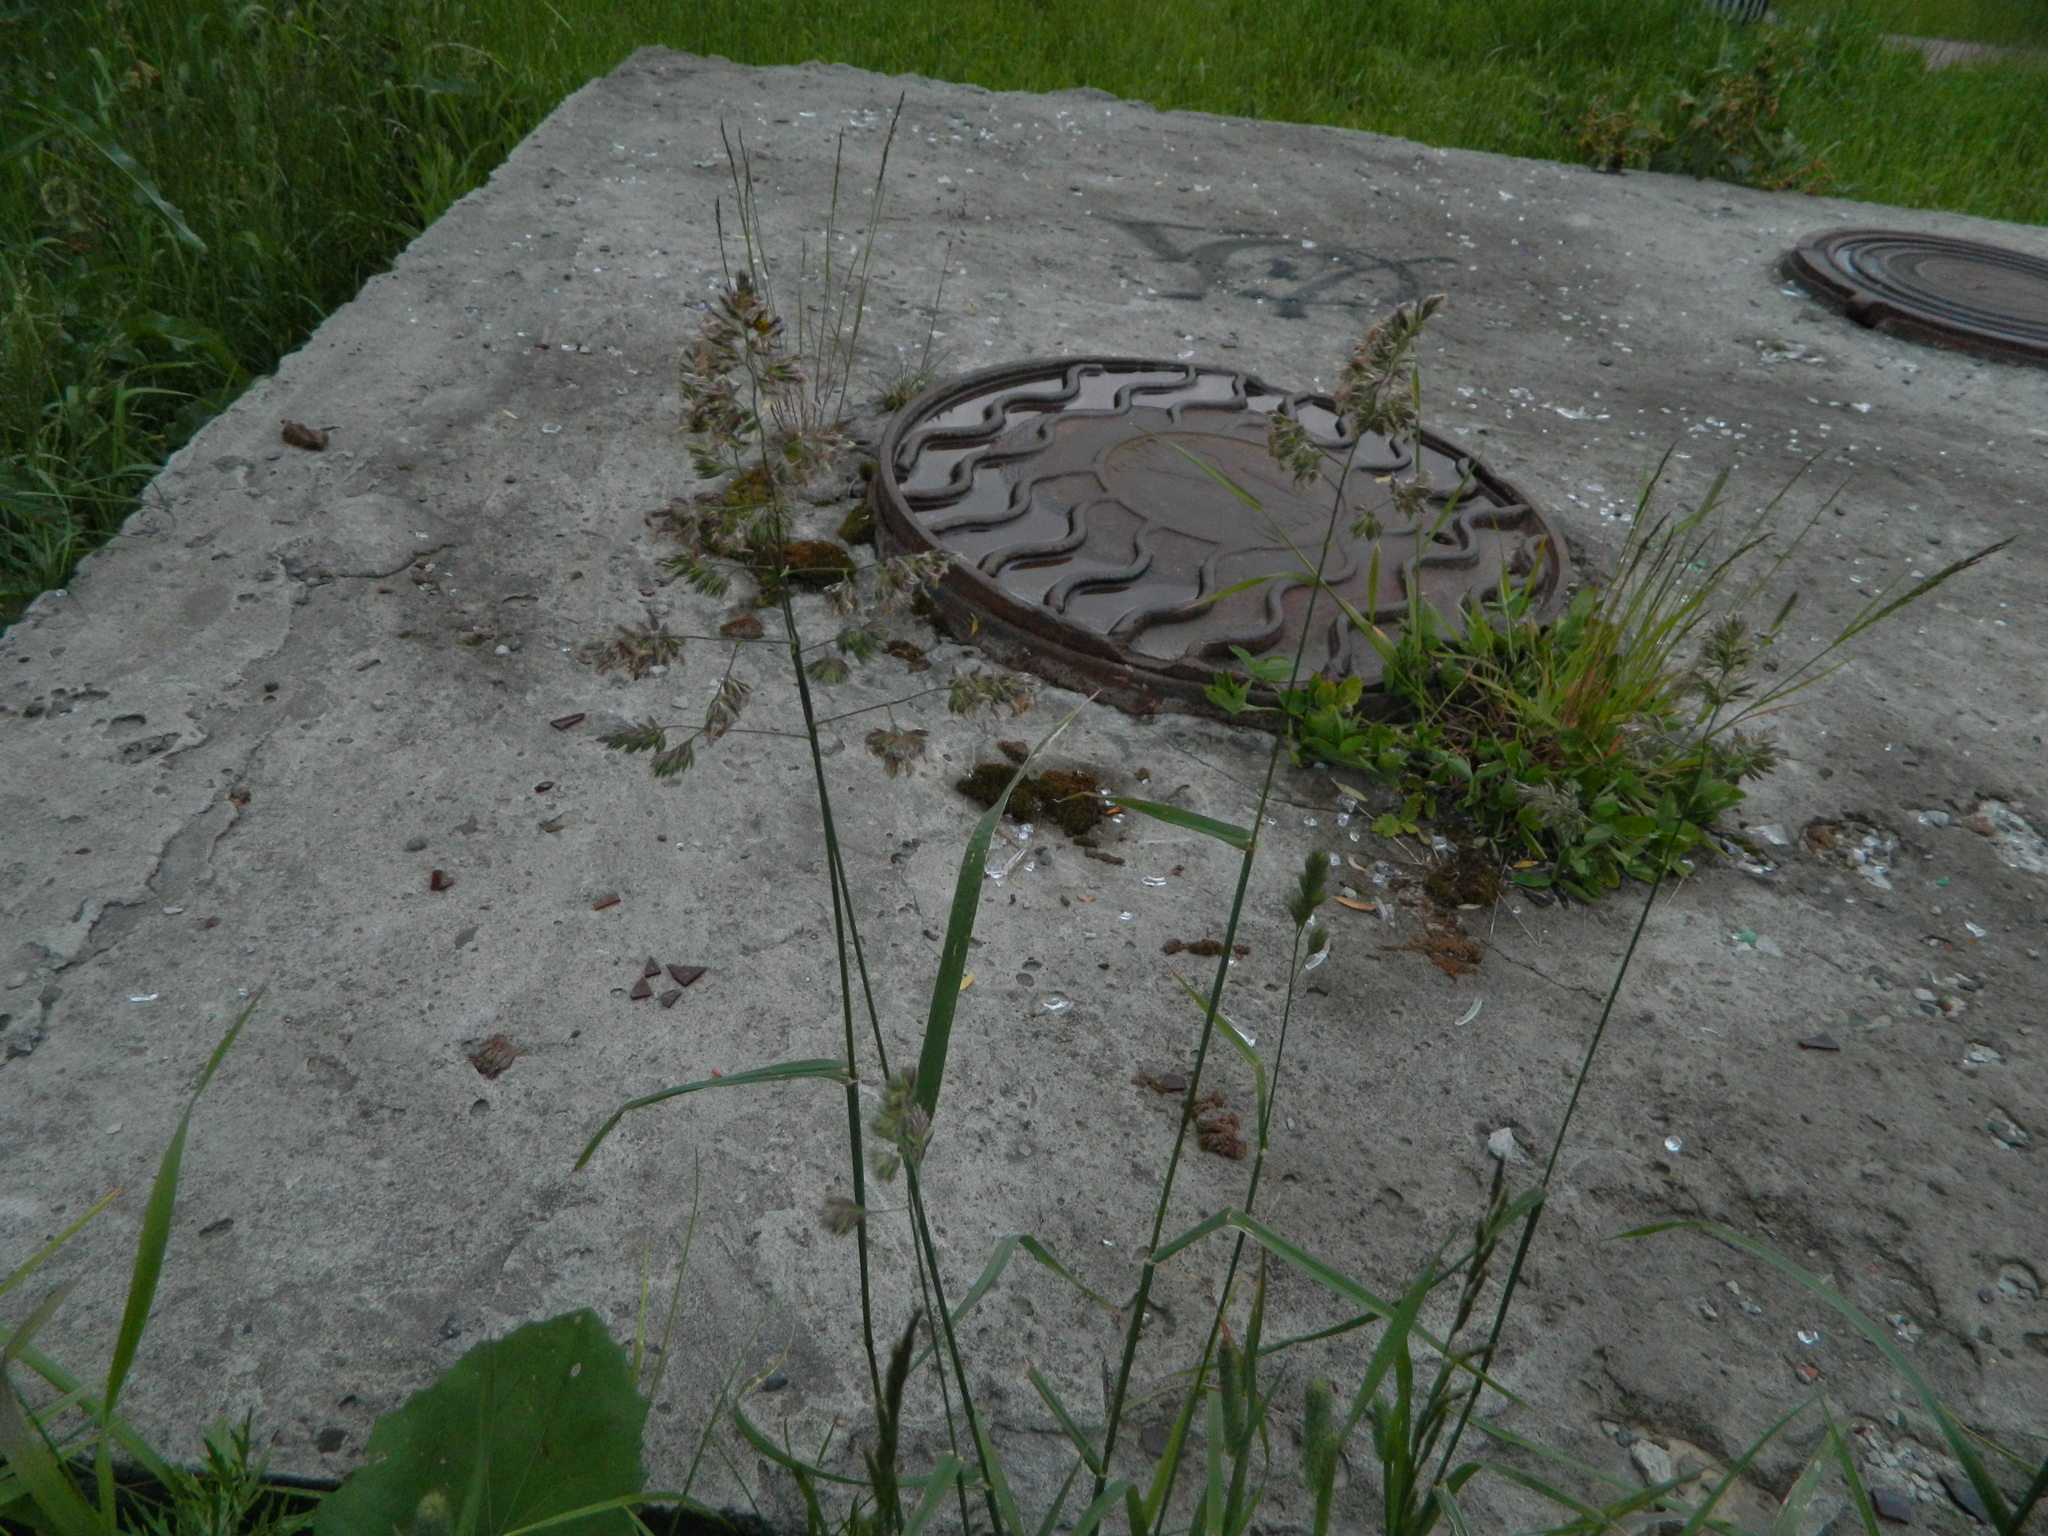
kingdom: Plantae
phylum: Tracheophyta
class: Liliopsida
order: Poales
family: Poaceae
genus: Dactylis
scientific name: Dactylis glomerata
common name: Orchardgrass
